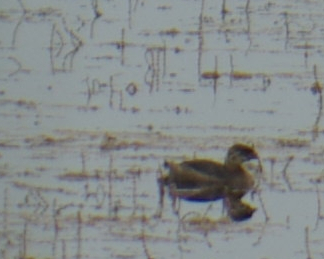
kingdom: Animalia
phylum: Chordata
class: Aves
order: Podicipediformes
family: Podicipedidae
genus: Podilymbus
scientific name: Podilymbus podiceps
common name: Pied-billed grebe
